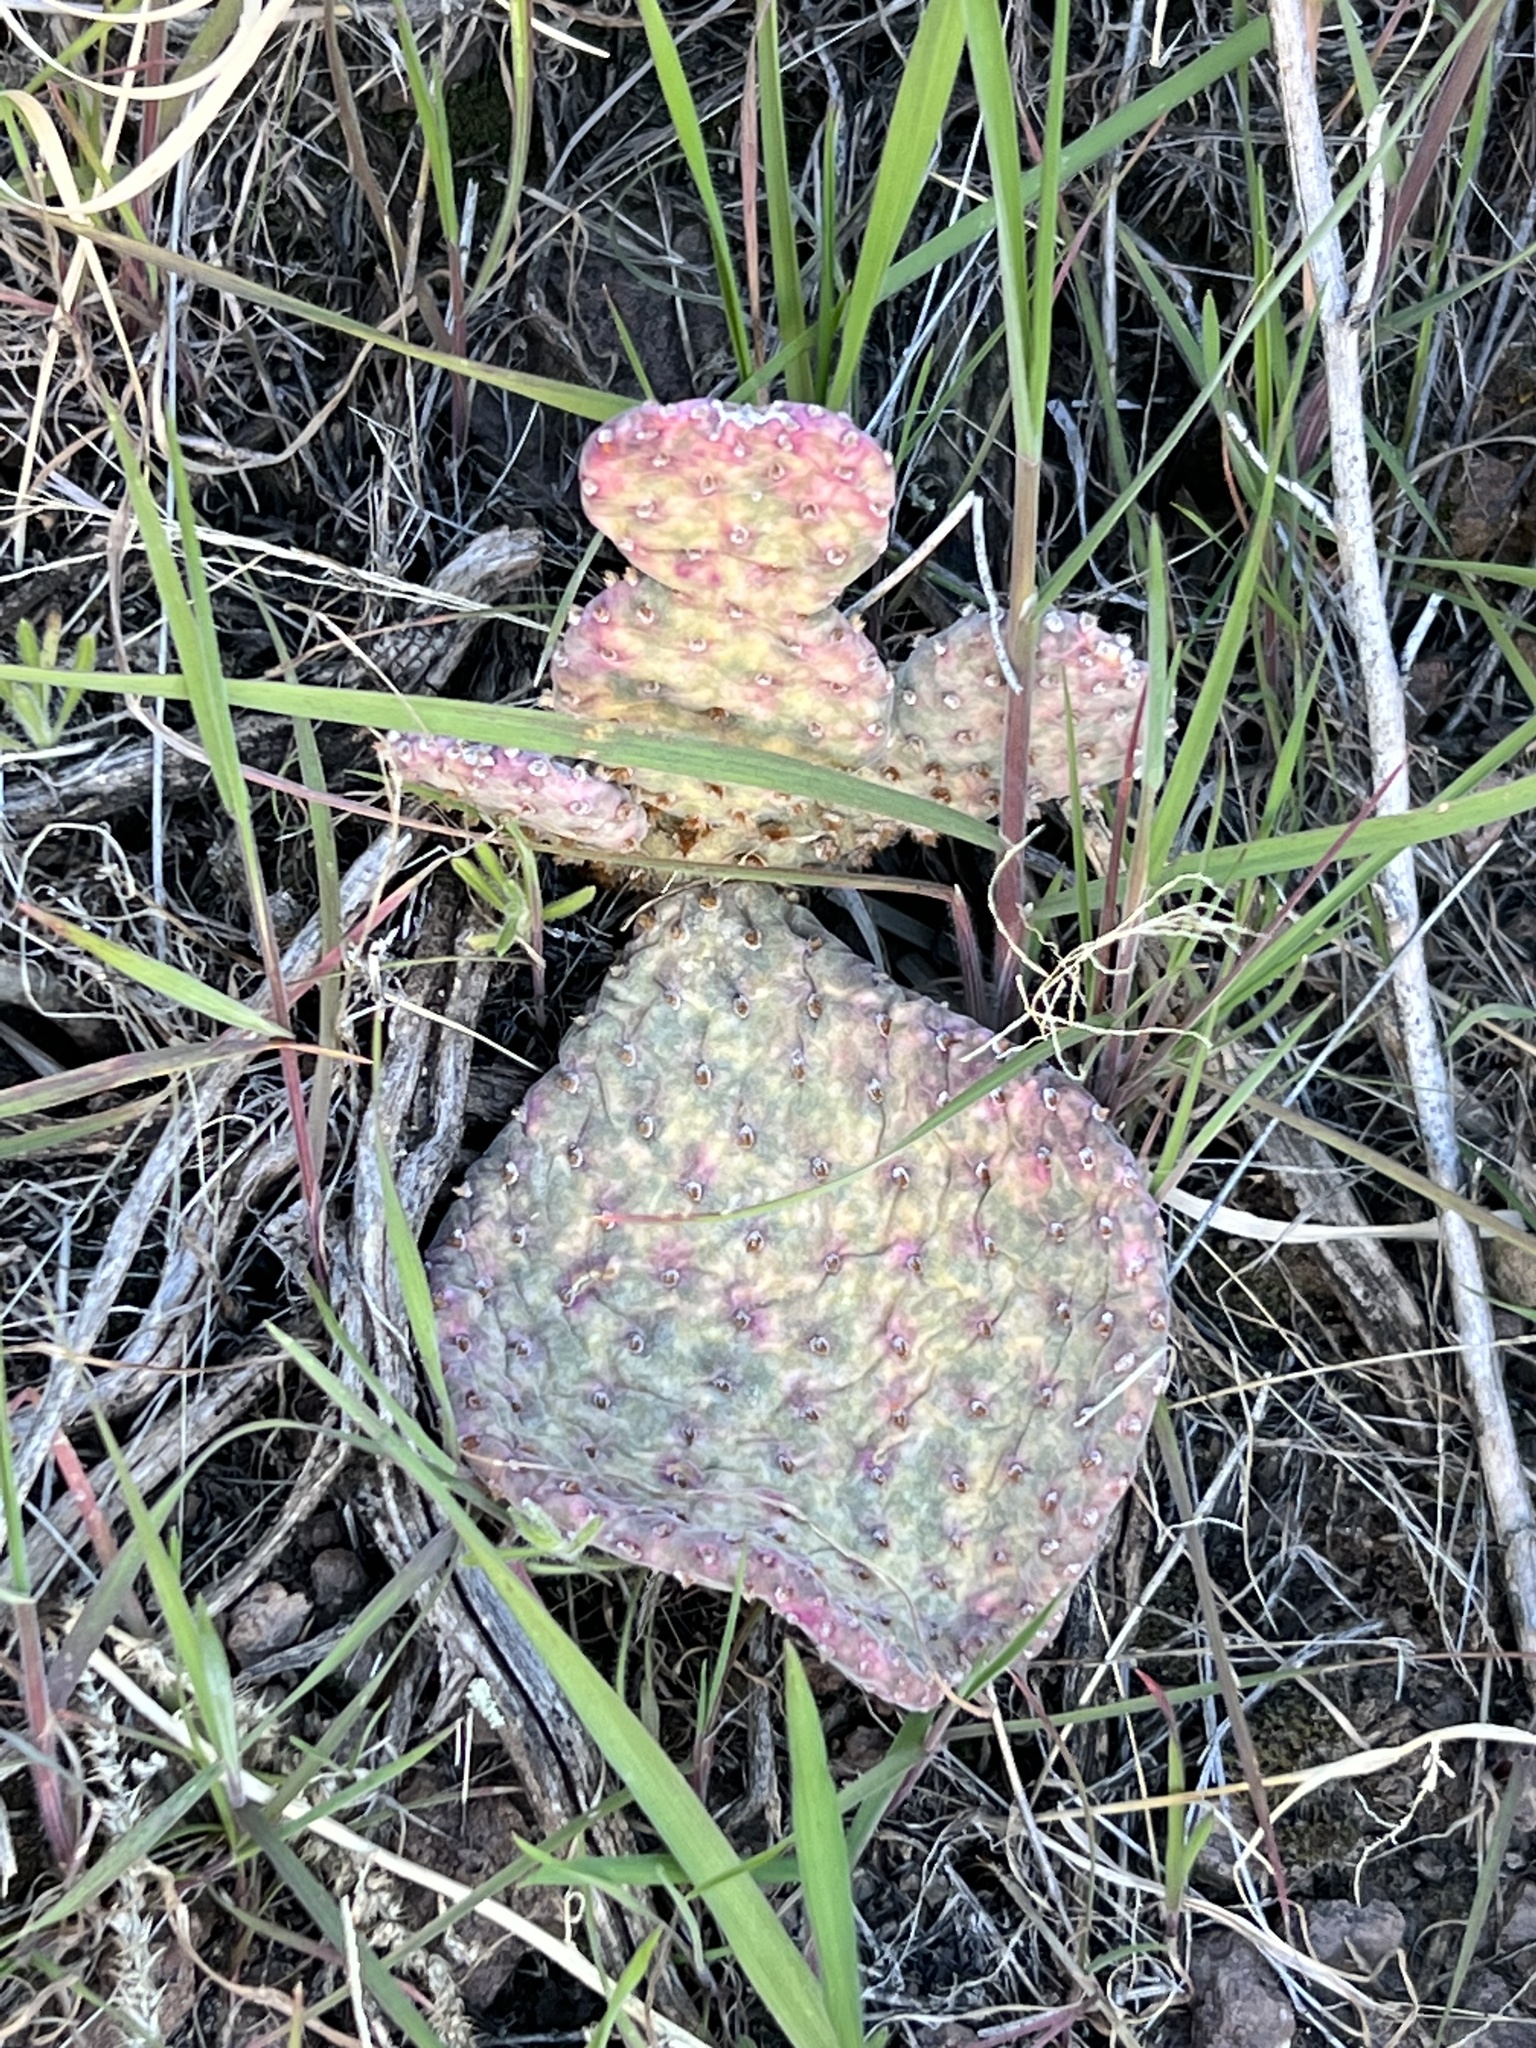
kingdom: Plantae
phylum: Tracheophyta
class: Magnoliopsida
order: Caryophyllales
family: Cactaceae
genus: Opuntia
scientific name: Opuntia basilaris
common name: Beavertail prickly-pear
